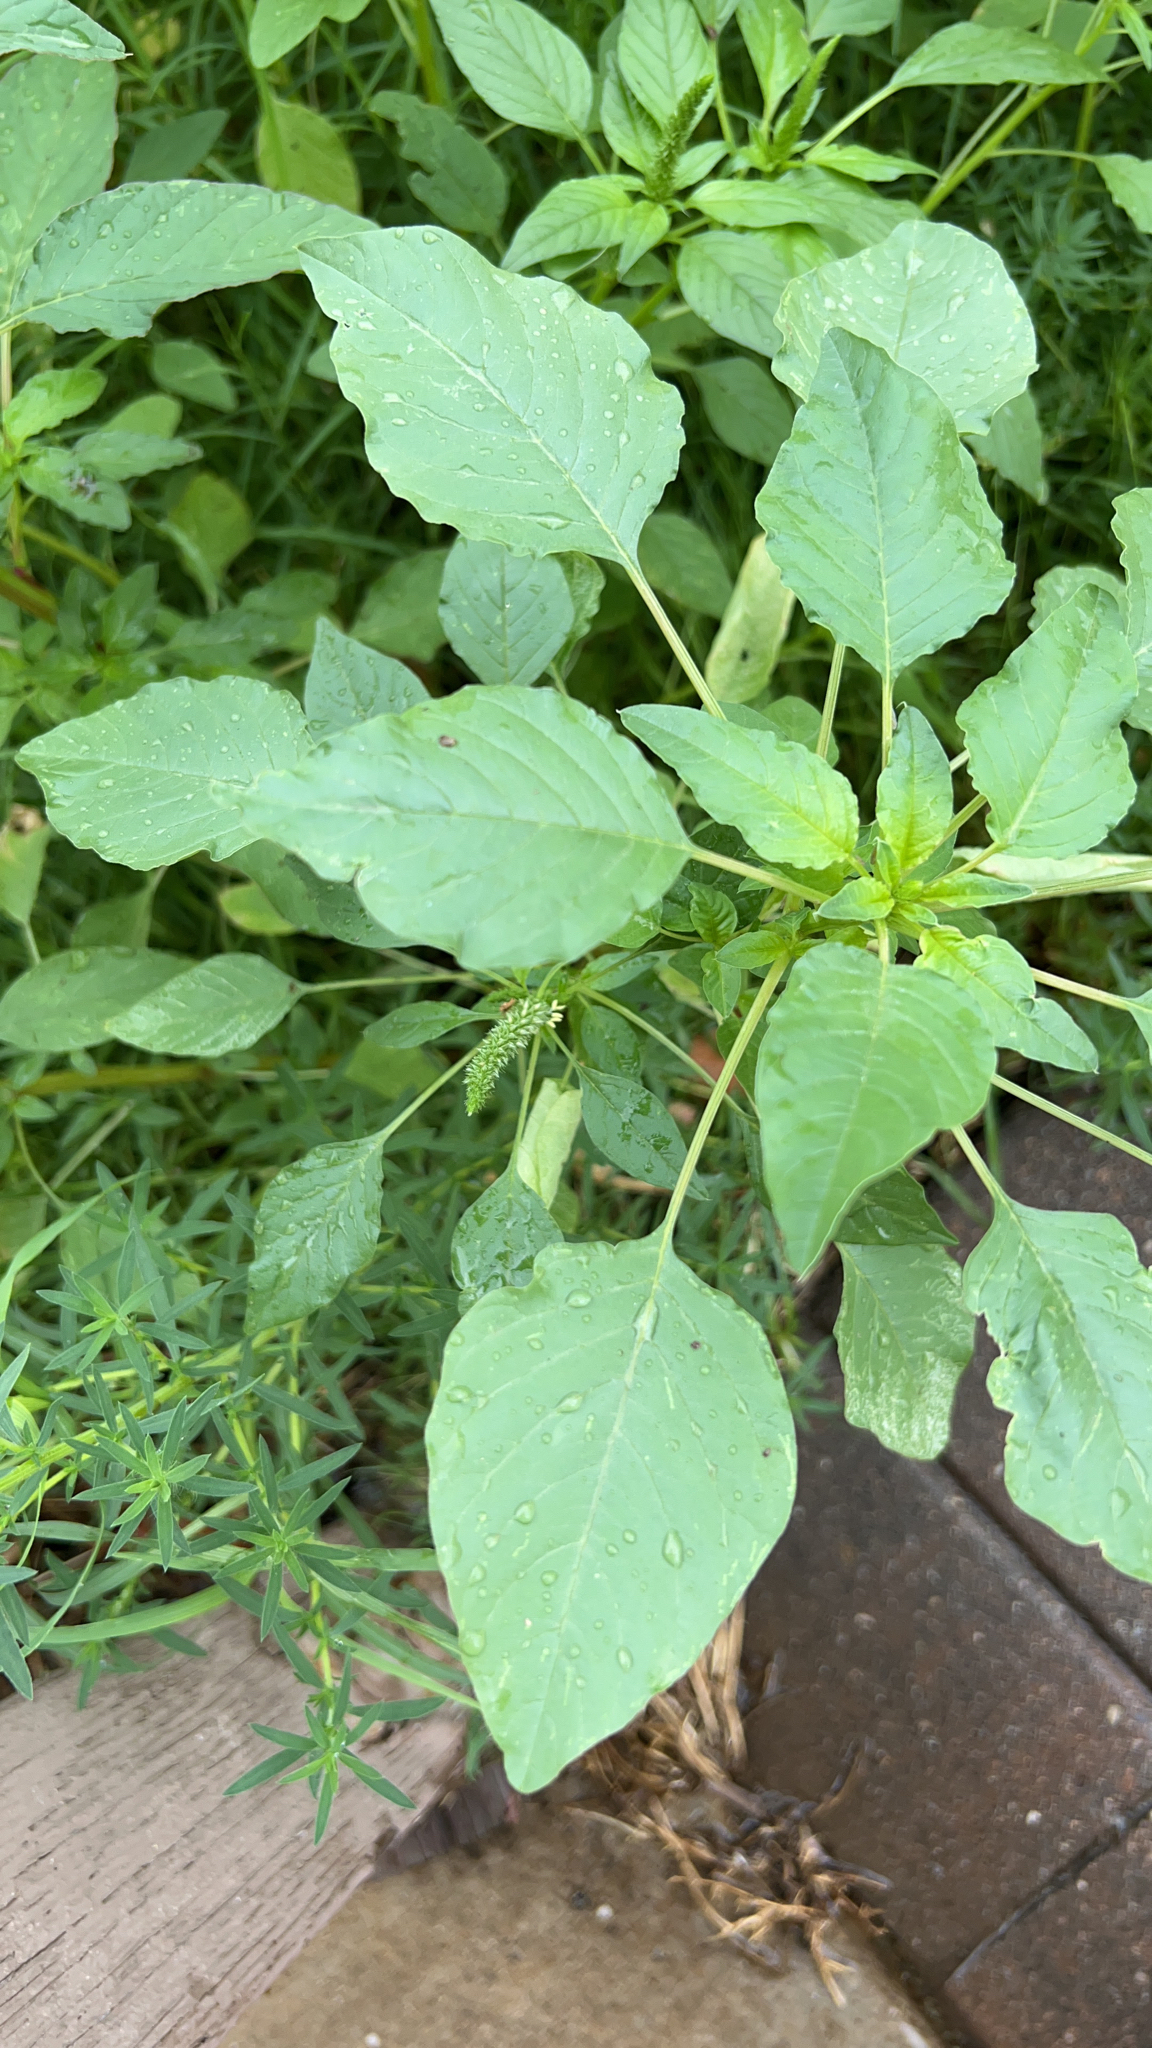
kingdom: Plantae
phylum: Tracheophyta
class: Magnoliopsida
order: Caryophyllales
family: Amaranthaceae
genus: Amaranthus
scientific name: Amaranthus palmeri
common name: Dioecious amaranth
